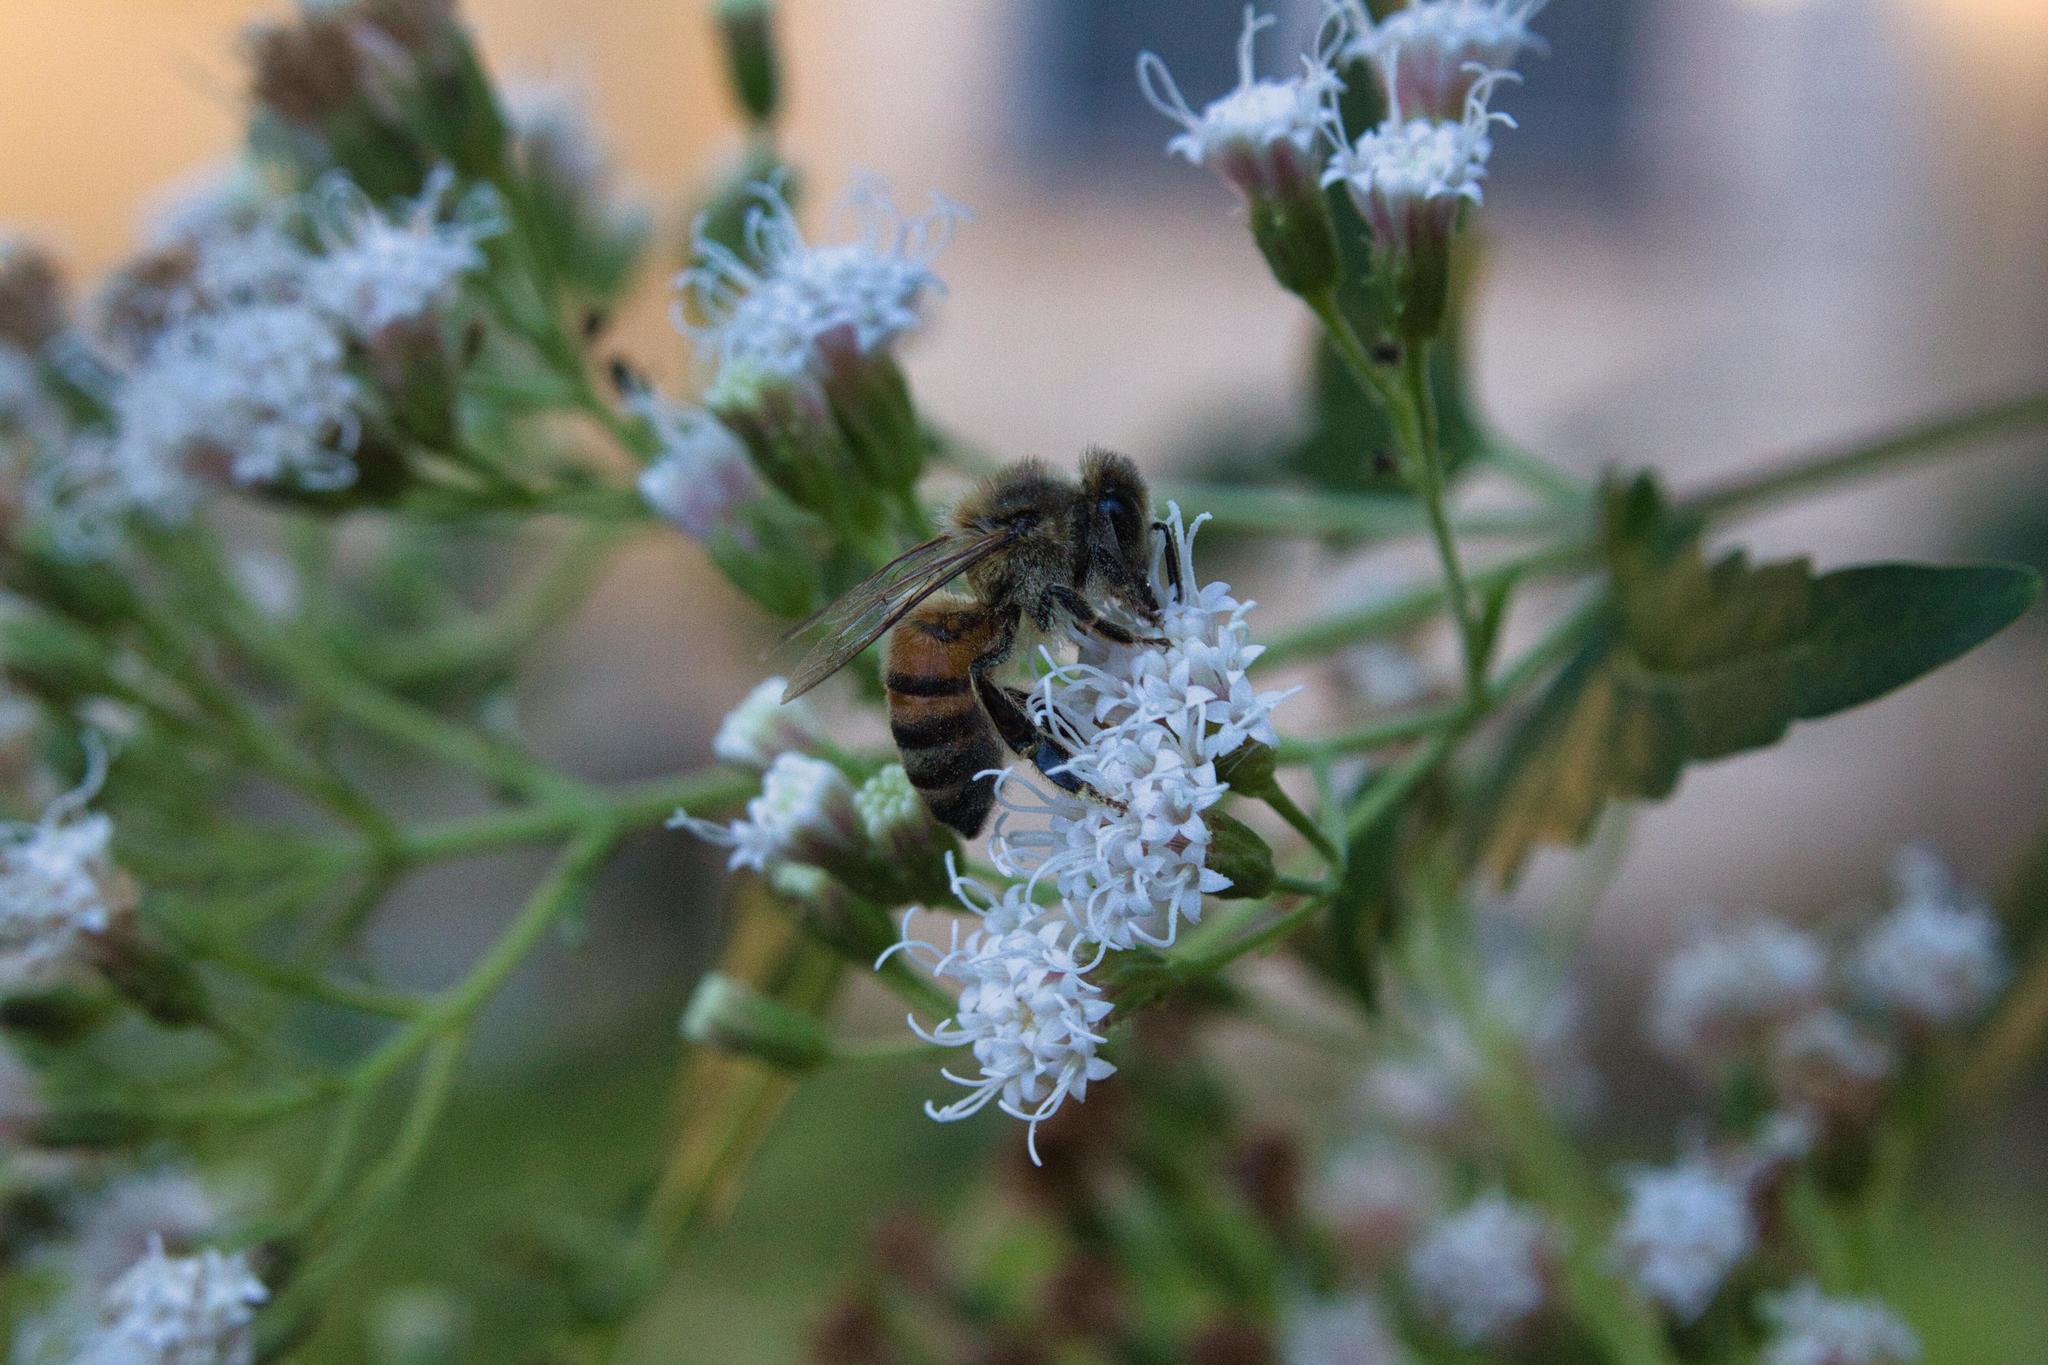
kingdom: Plantae
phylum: Tracheophyta
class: Magnoliopsida
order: Asterales
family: Asteraceae
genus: Ageratina
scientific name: Ageratina havanensis
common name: Havana snakeroot
